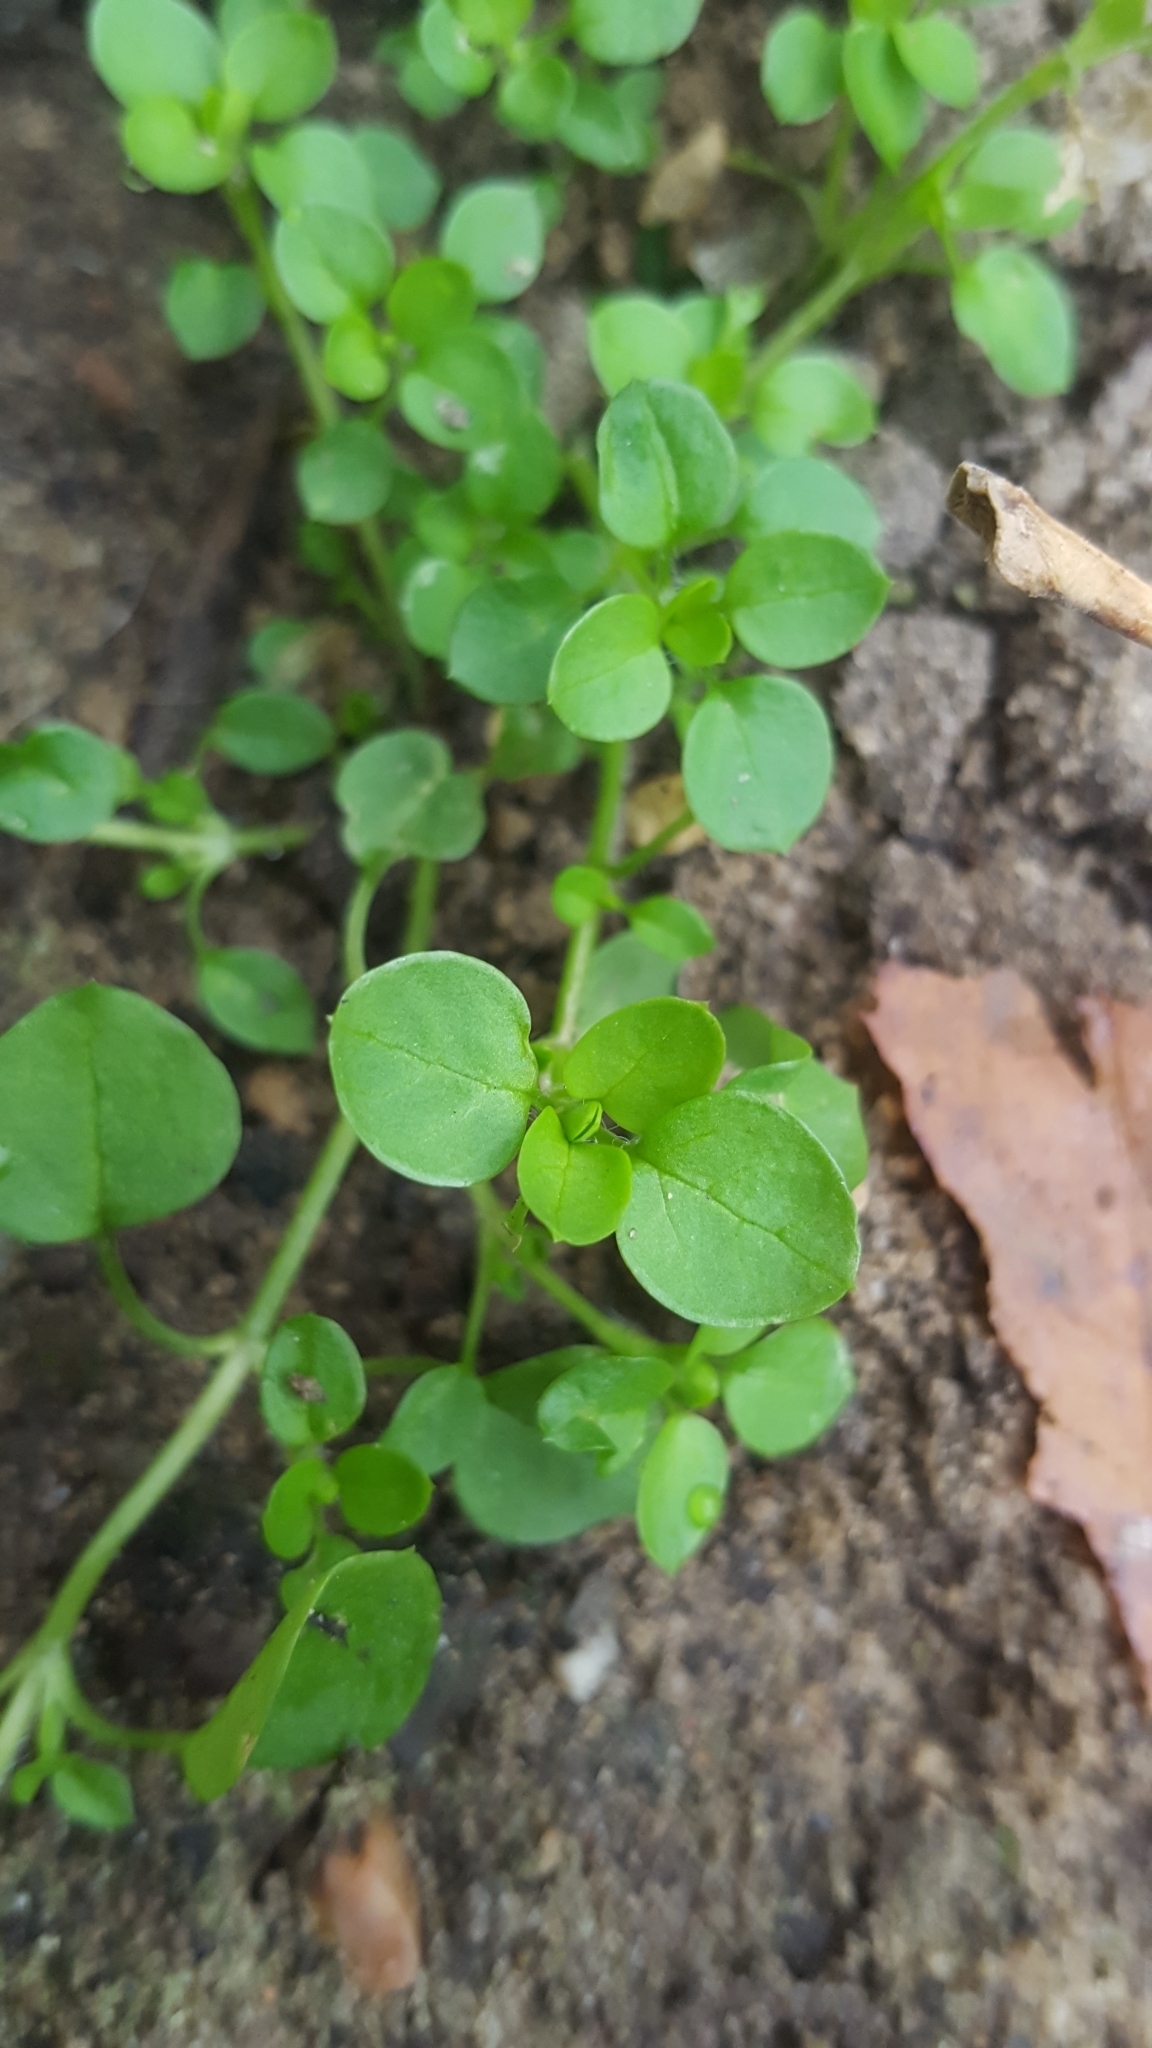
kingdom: Plantae
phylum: Tracheophyta
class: Magnoliopsida
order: Caryophyllales
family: Caryophyllaceae
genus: Stellaria
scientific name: Stellaria media
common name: Common chickweed
